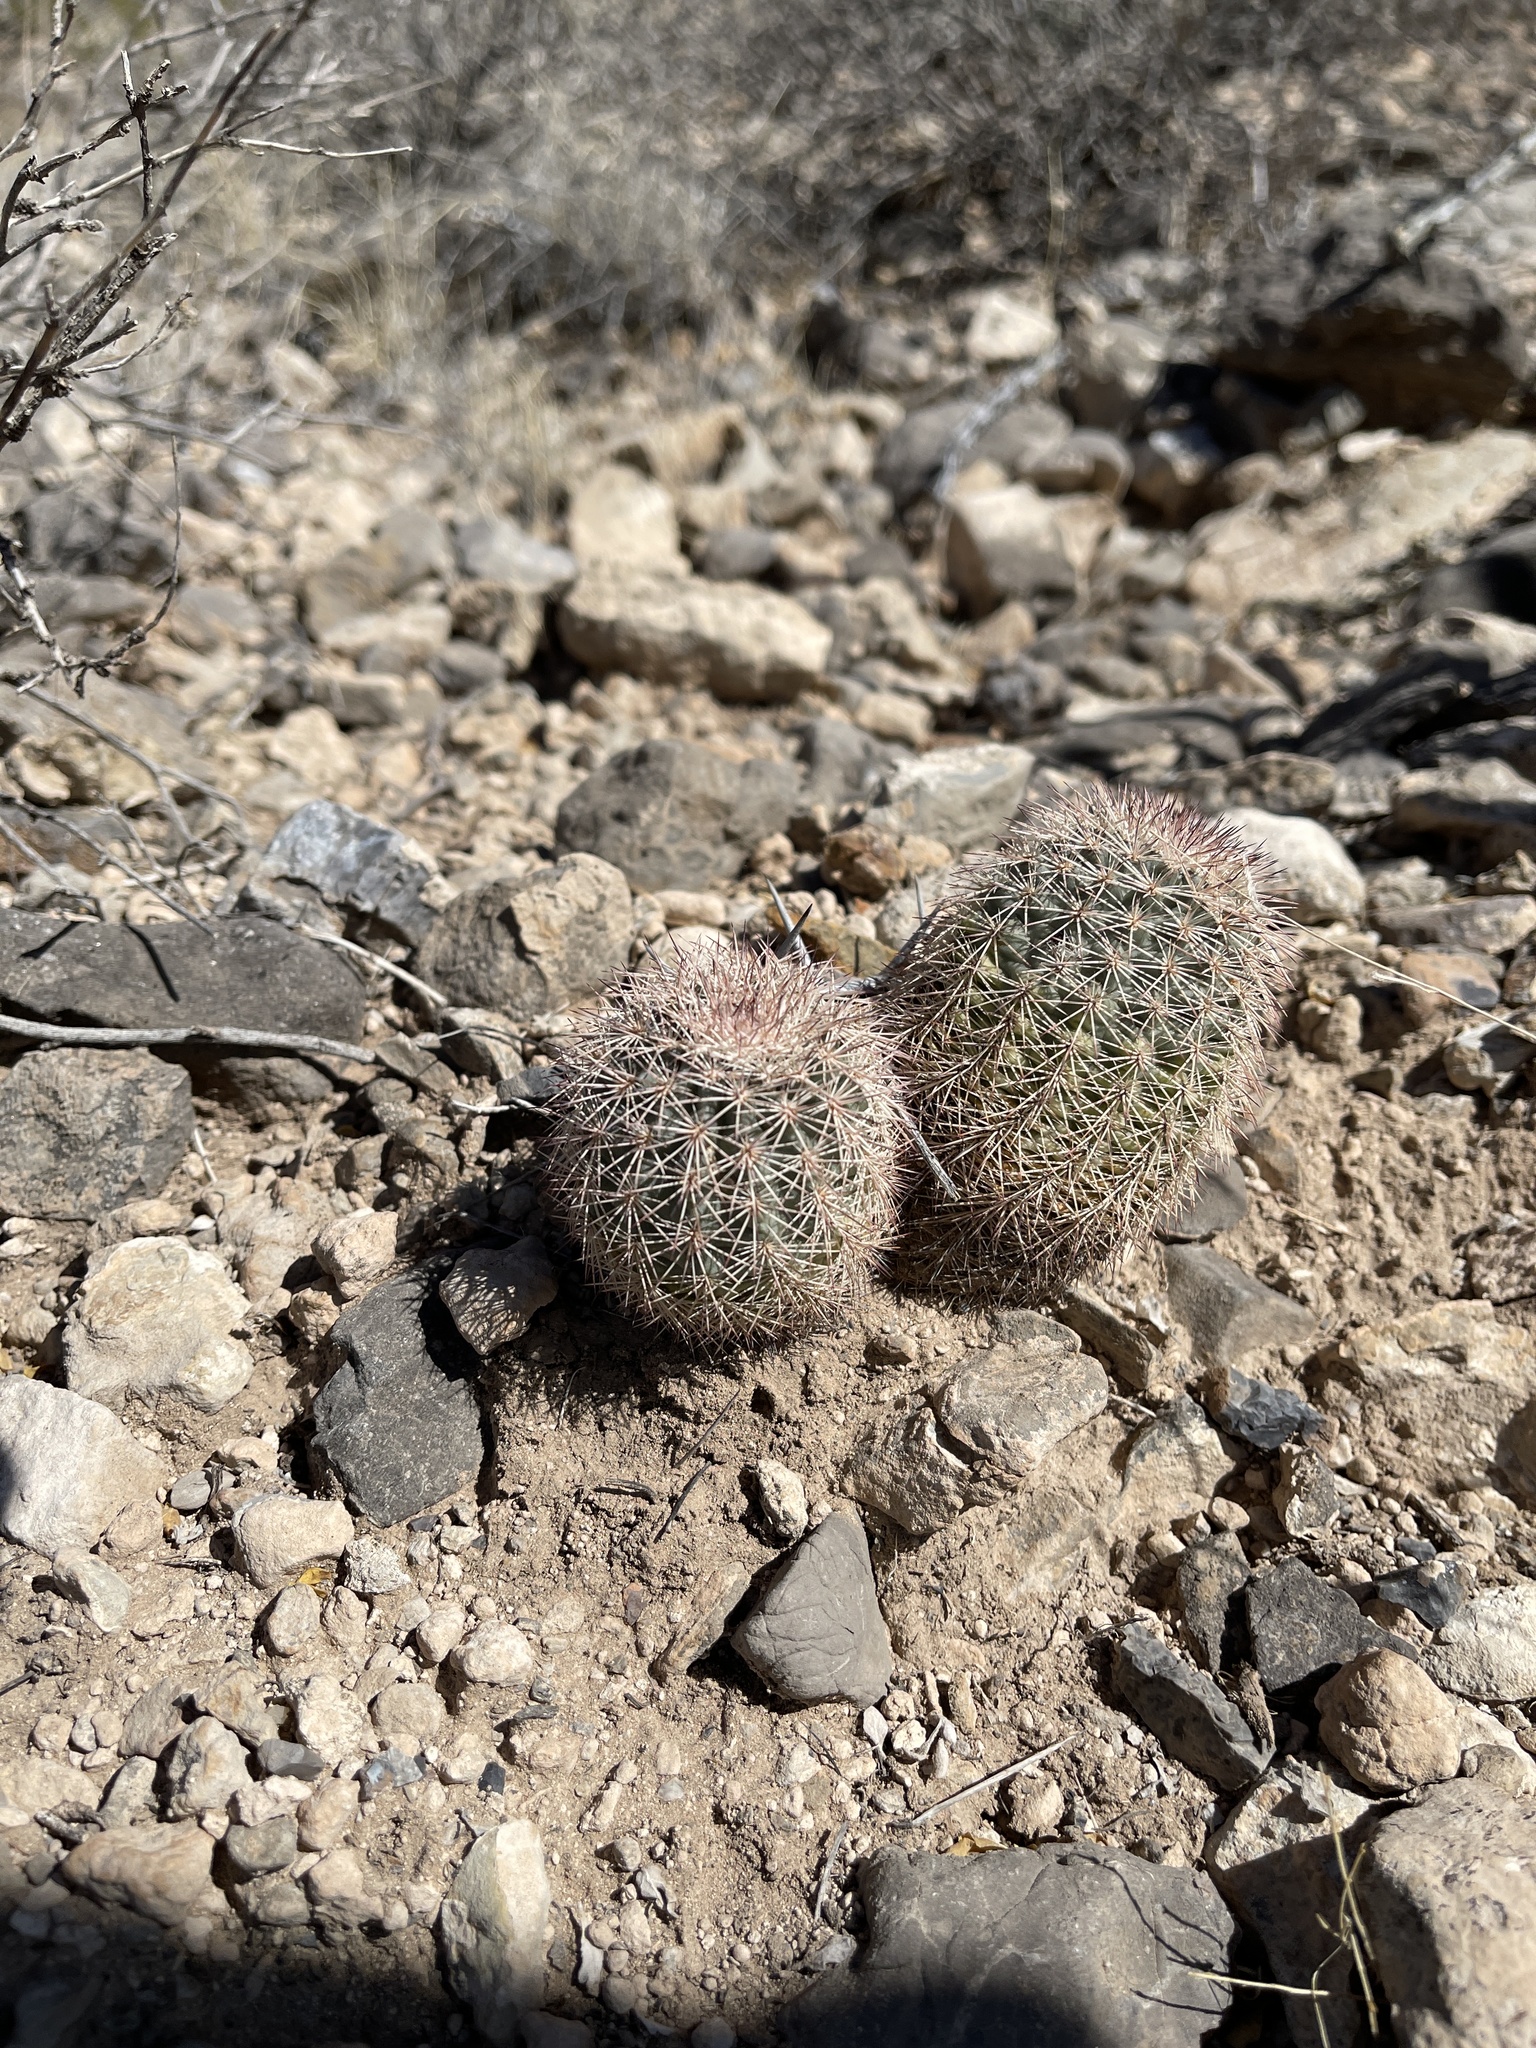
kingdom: Plantae
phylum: Tracheophyta
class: Magnoliopsida
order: Caryophyllales
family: Cactaceae
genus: Echinocereus
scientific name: Echinocereus dasyacanthus
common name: Spiny hedgehog cactus
